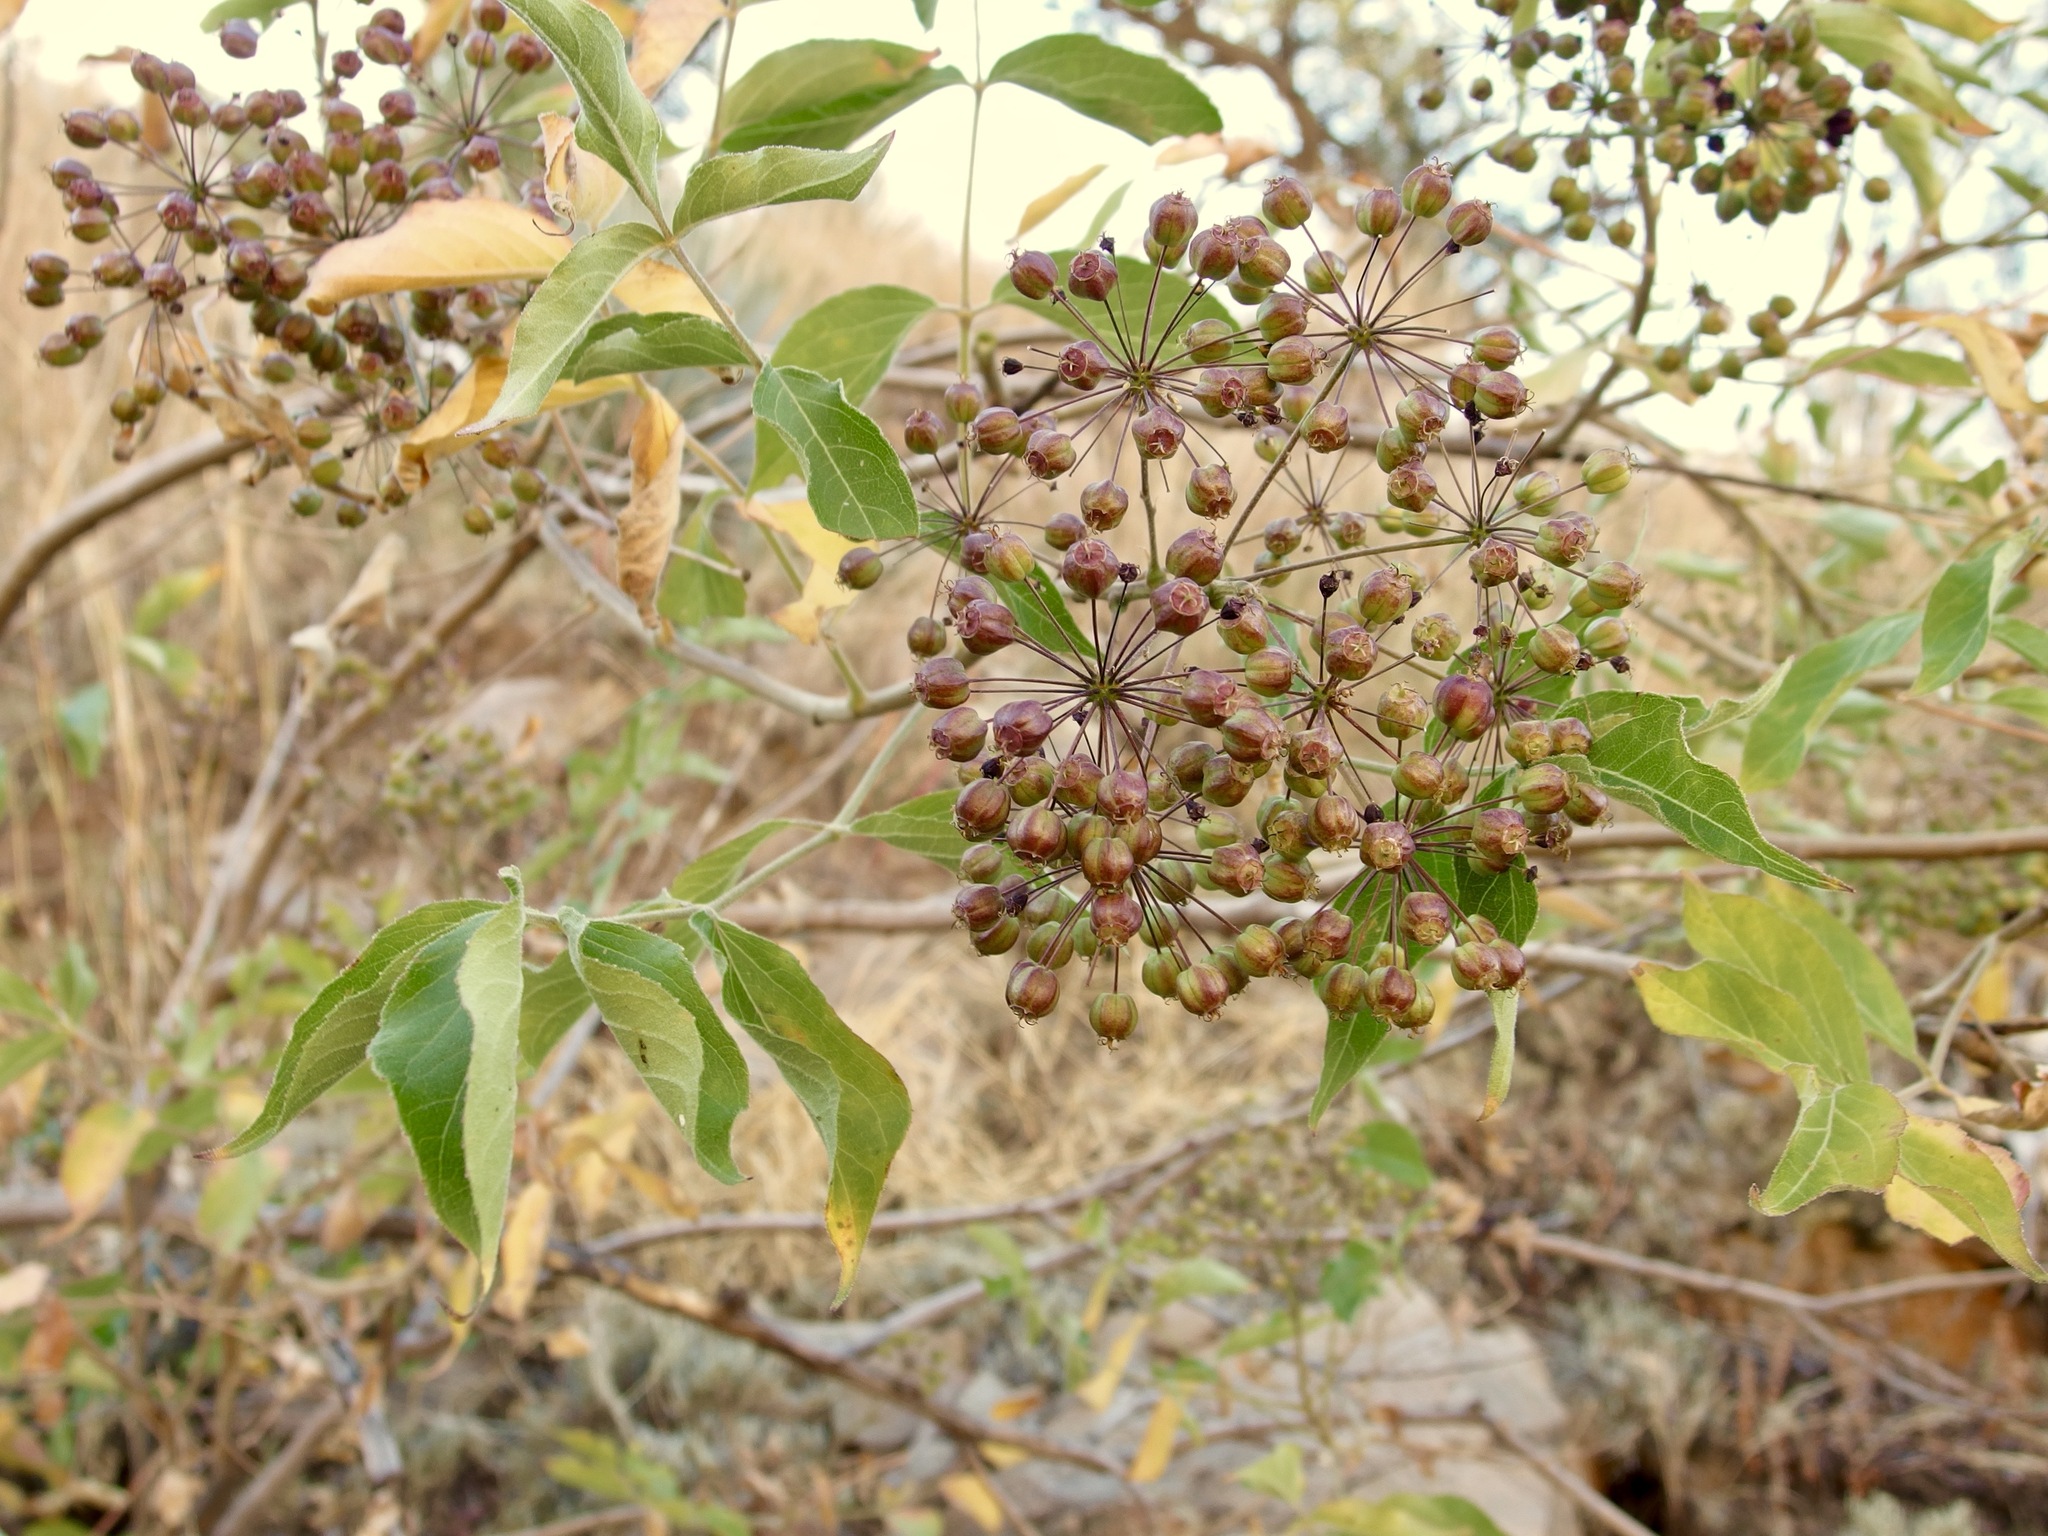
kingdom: Plantae
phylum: Tracheophyta
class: Magnoliopsida
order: Apiales
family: Araliaceae
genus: Aralia
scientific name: Aralia humilis
